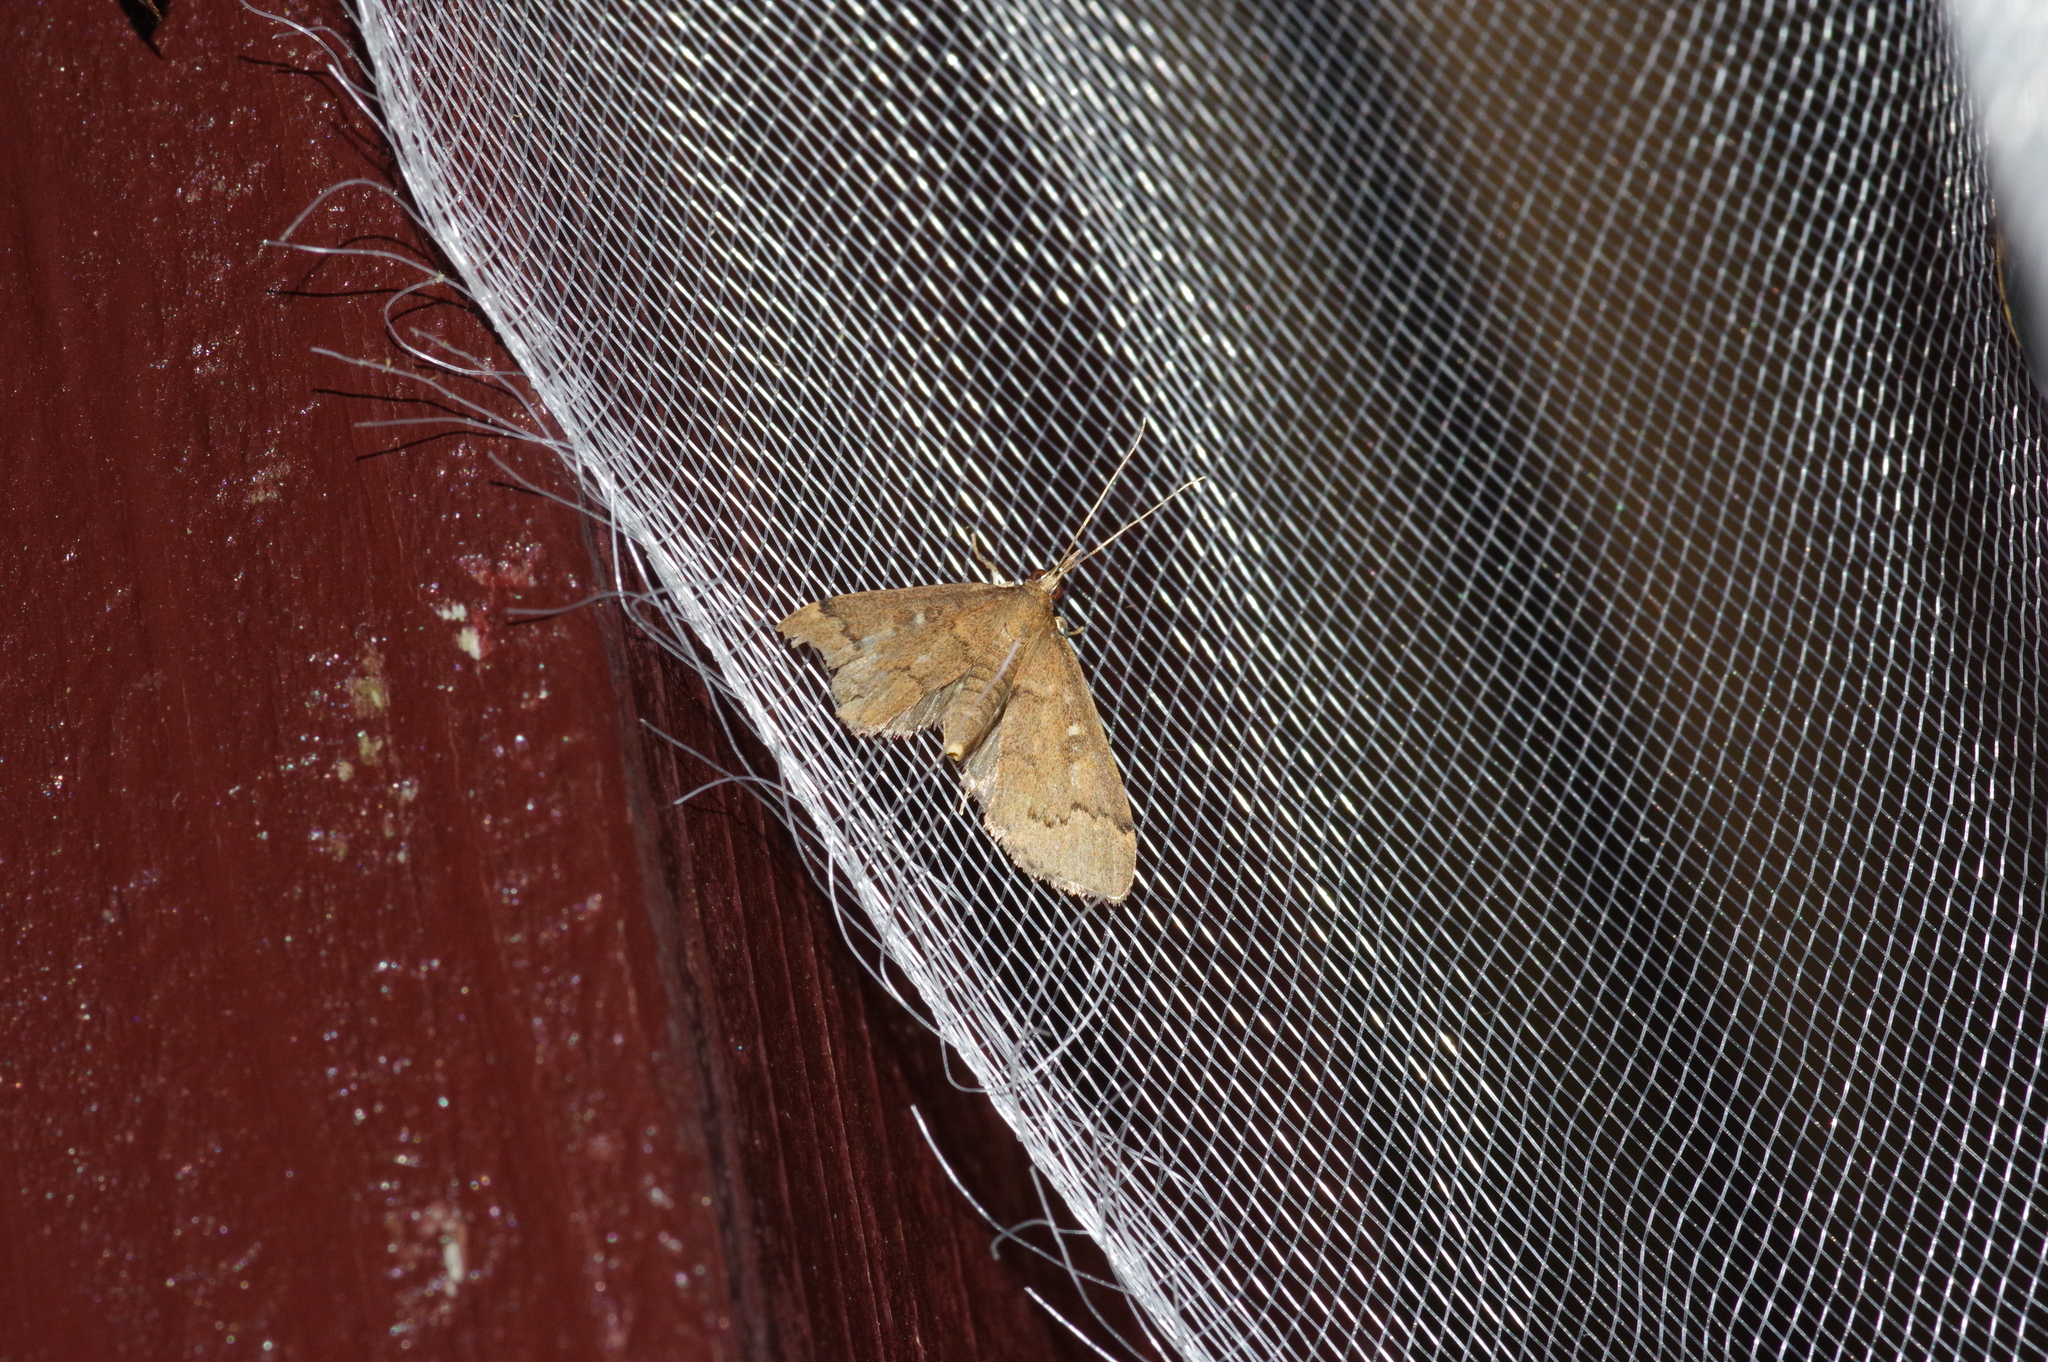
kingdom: Animalia
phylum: Arthropoda
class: Insecta
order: Lepidoptera
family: Crambidae
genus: Camptomastix
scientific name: Camptomastix hisbonalis
